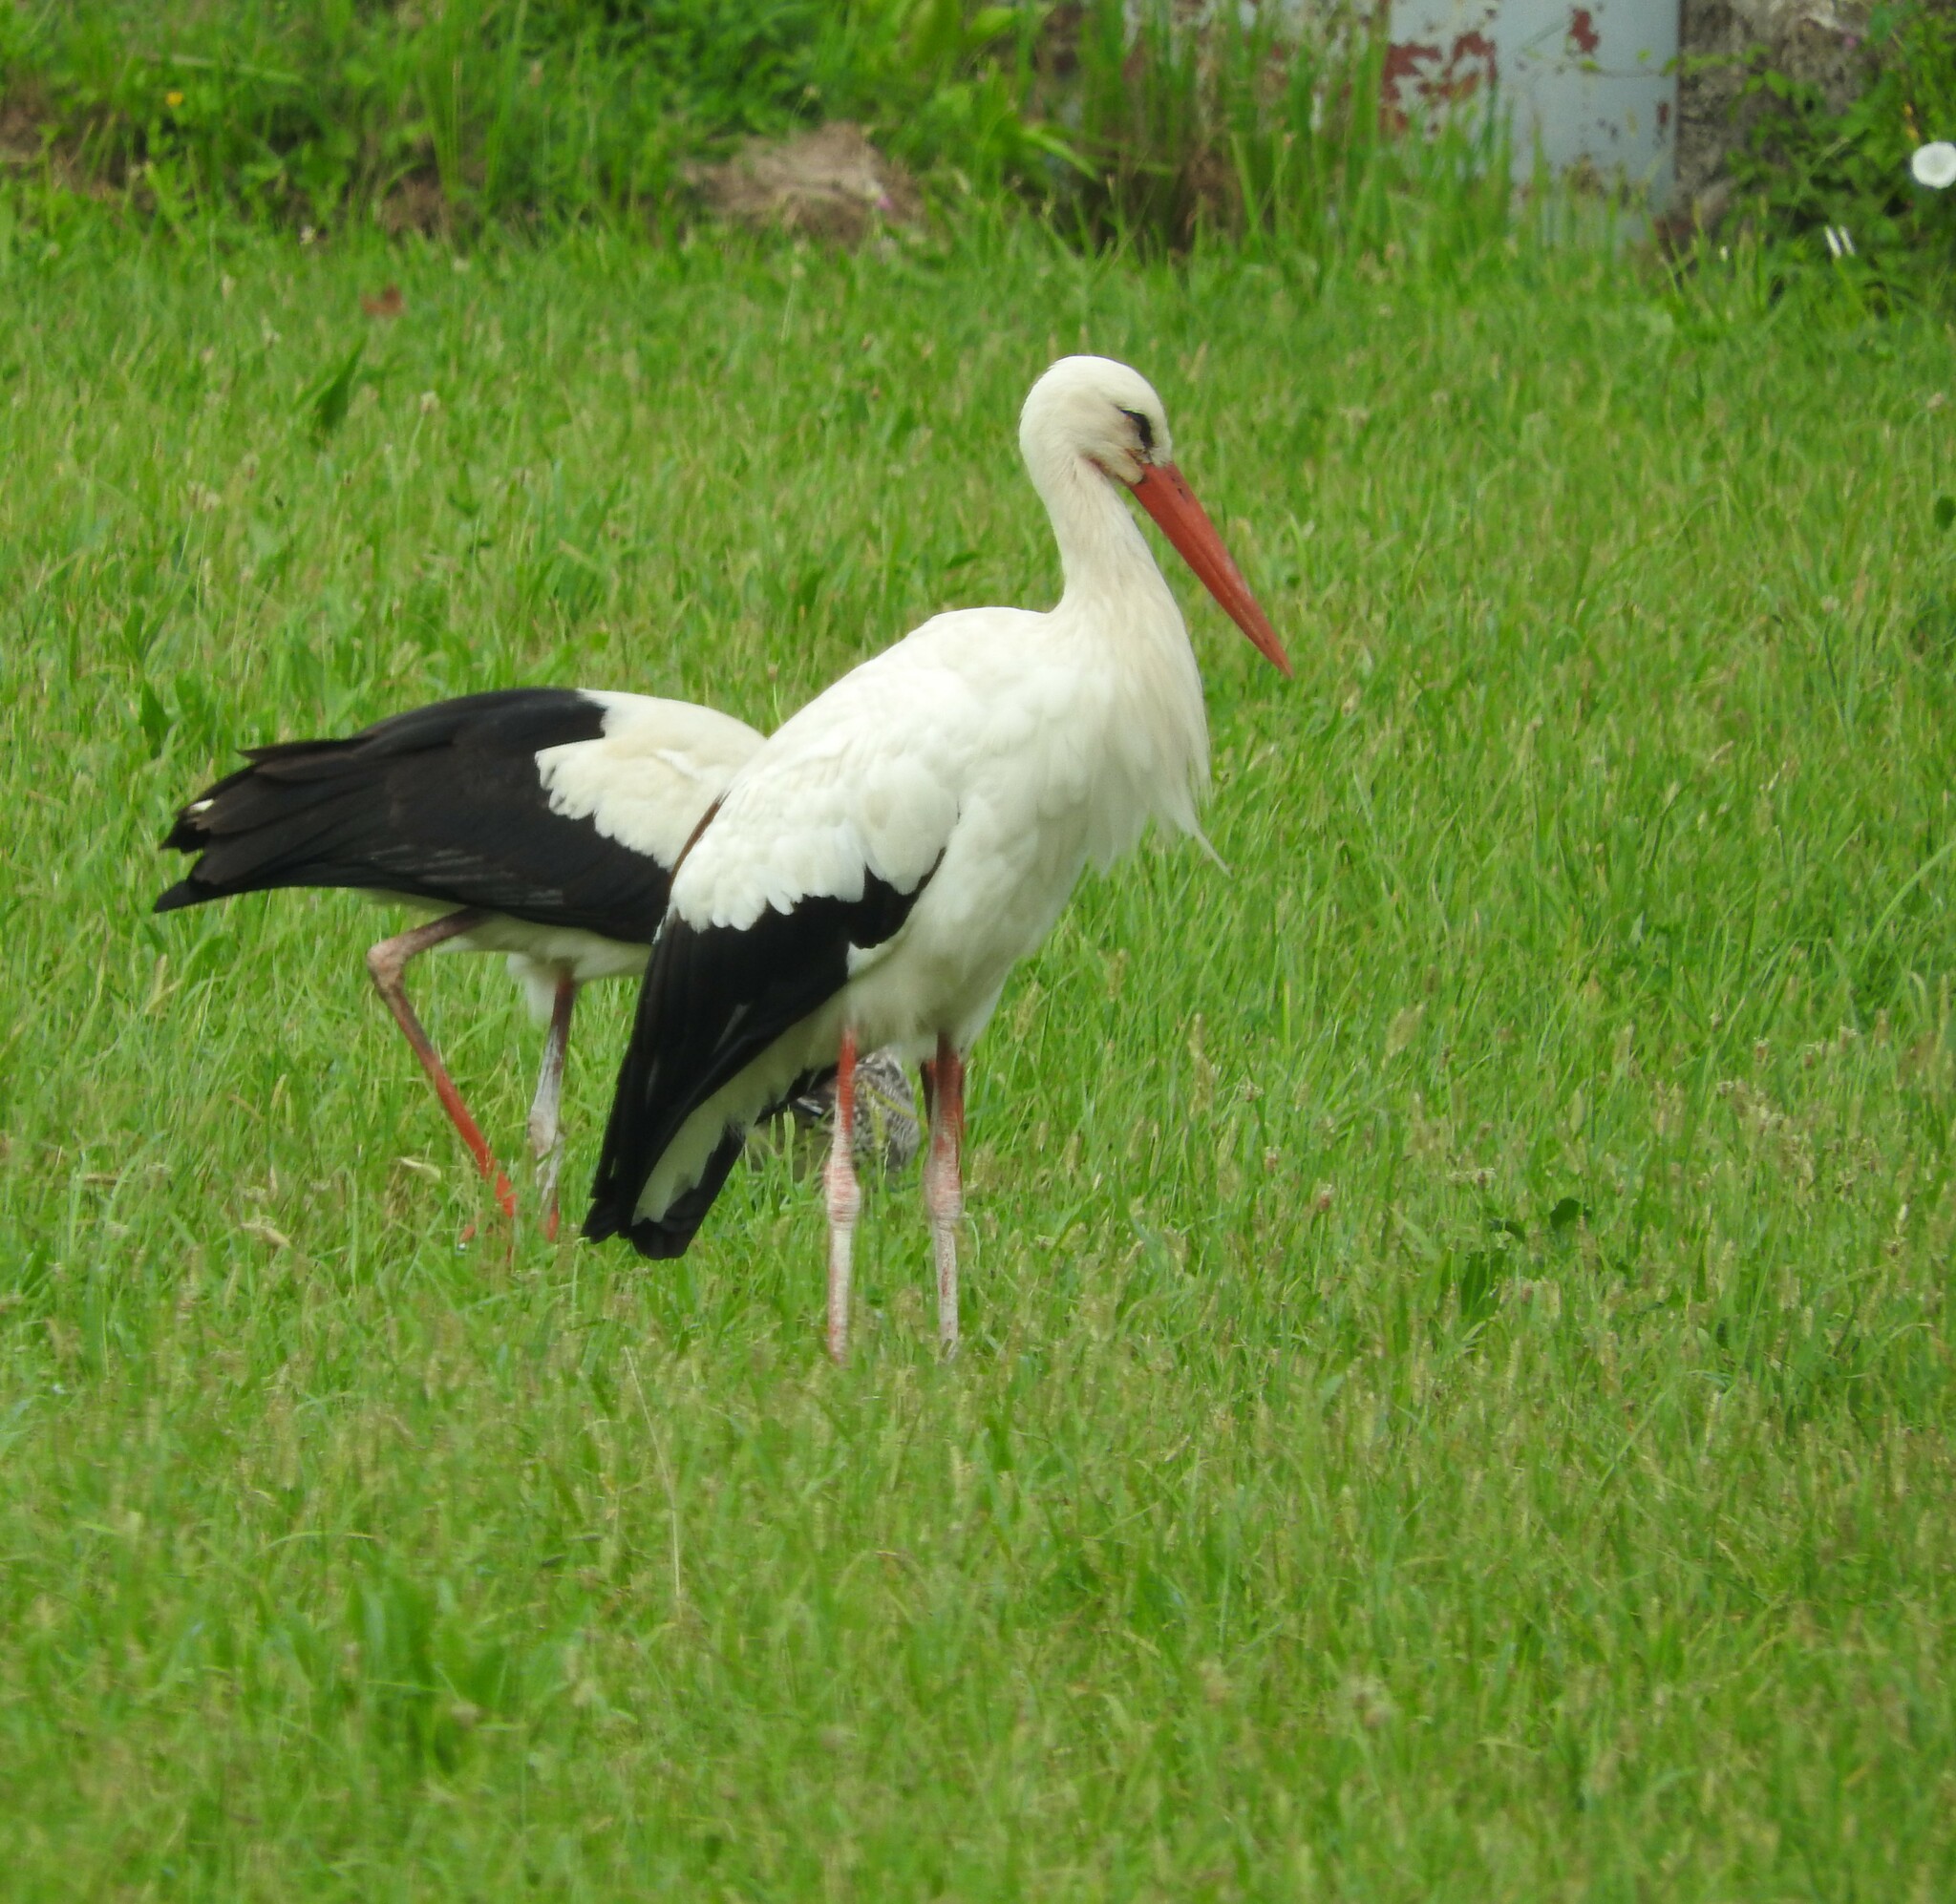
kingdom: Animalia
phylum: Chordata
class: Aves
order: Ciconiiformes
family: Ciconiidae
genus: Ciconia
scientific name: Ciconia ciconia
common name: White stork
